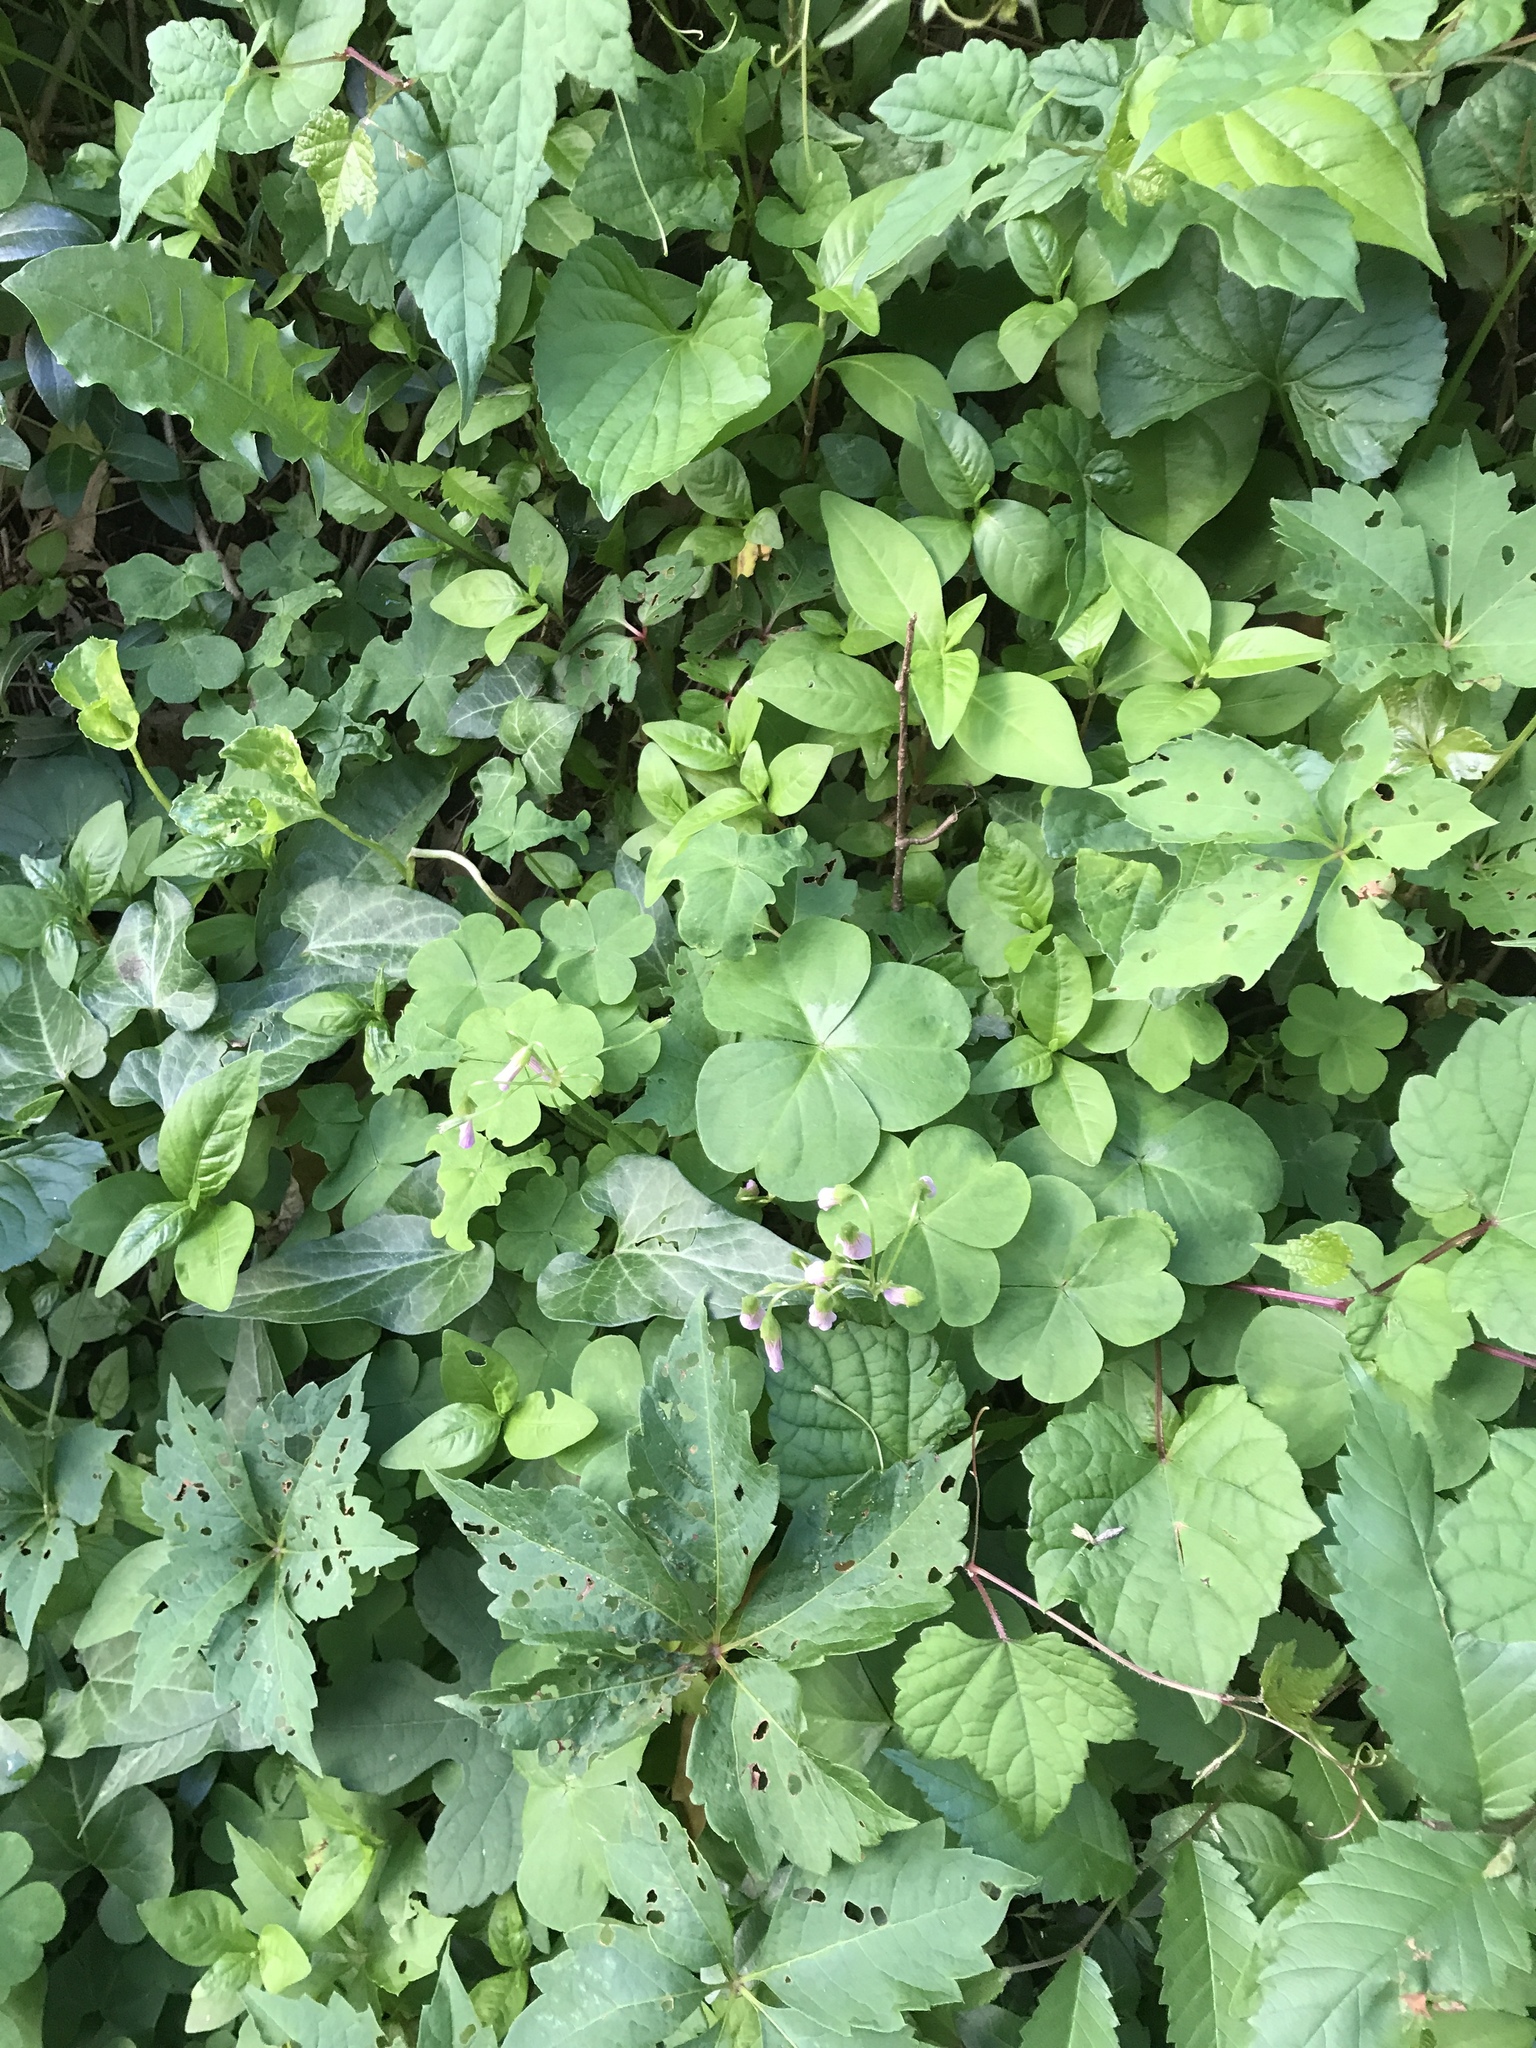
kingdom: Plantae
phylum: Tracheophyta
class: Magnoliopsida
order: Oxalidales
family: Oxalidaceae
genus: Oxalis
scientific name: Oxalis debilis
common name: Large-flowered pink-sorrel
